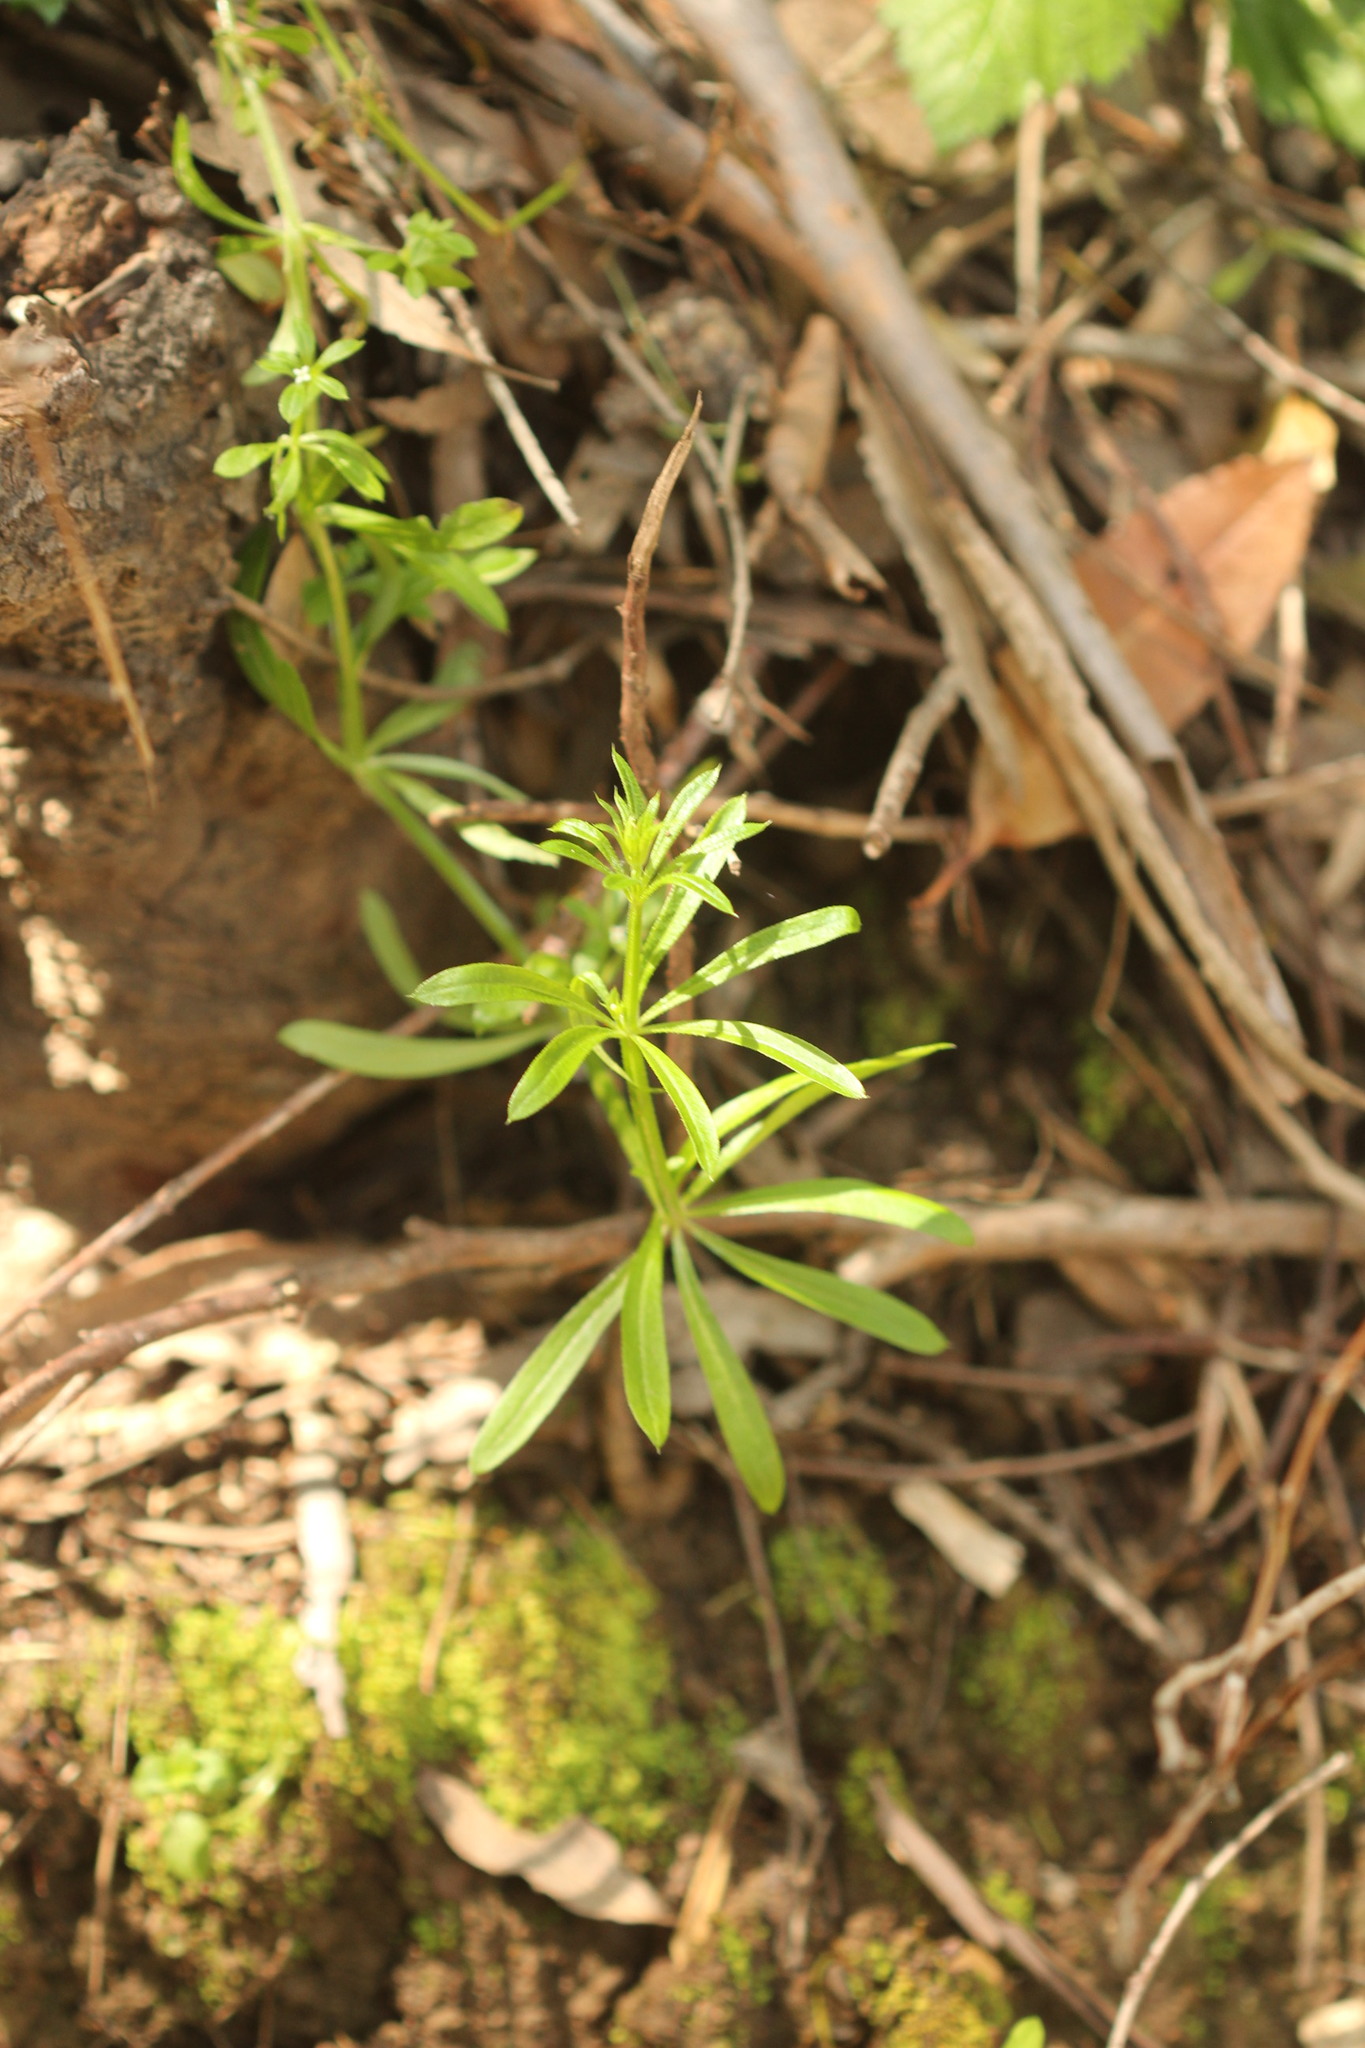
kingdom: Plantae
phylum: Tracheophyta
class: Magnoliopsida
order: Gentianales
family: Rubiaceae
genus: Galium
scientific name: Galium aparine
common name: Cleavers
